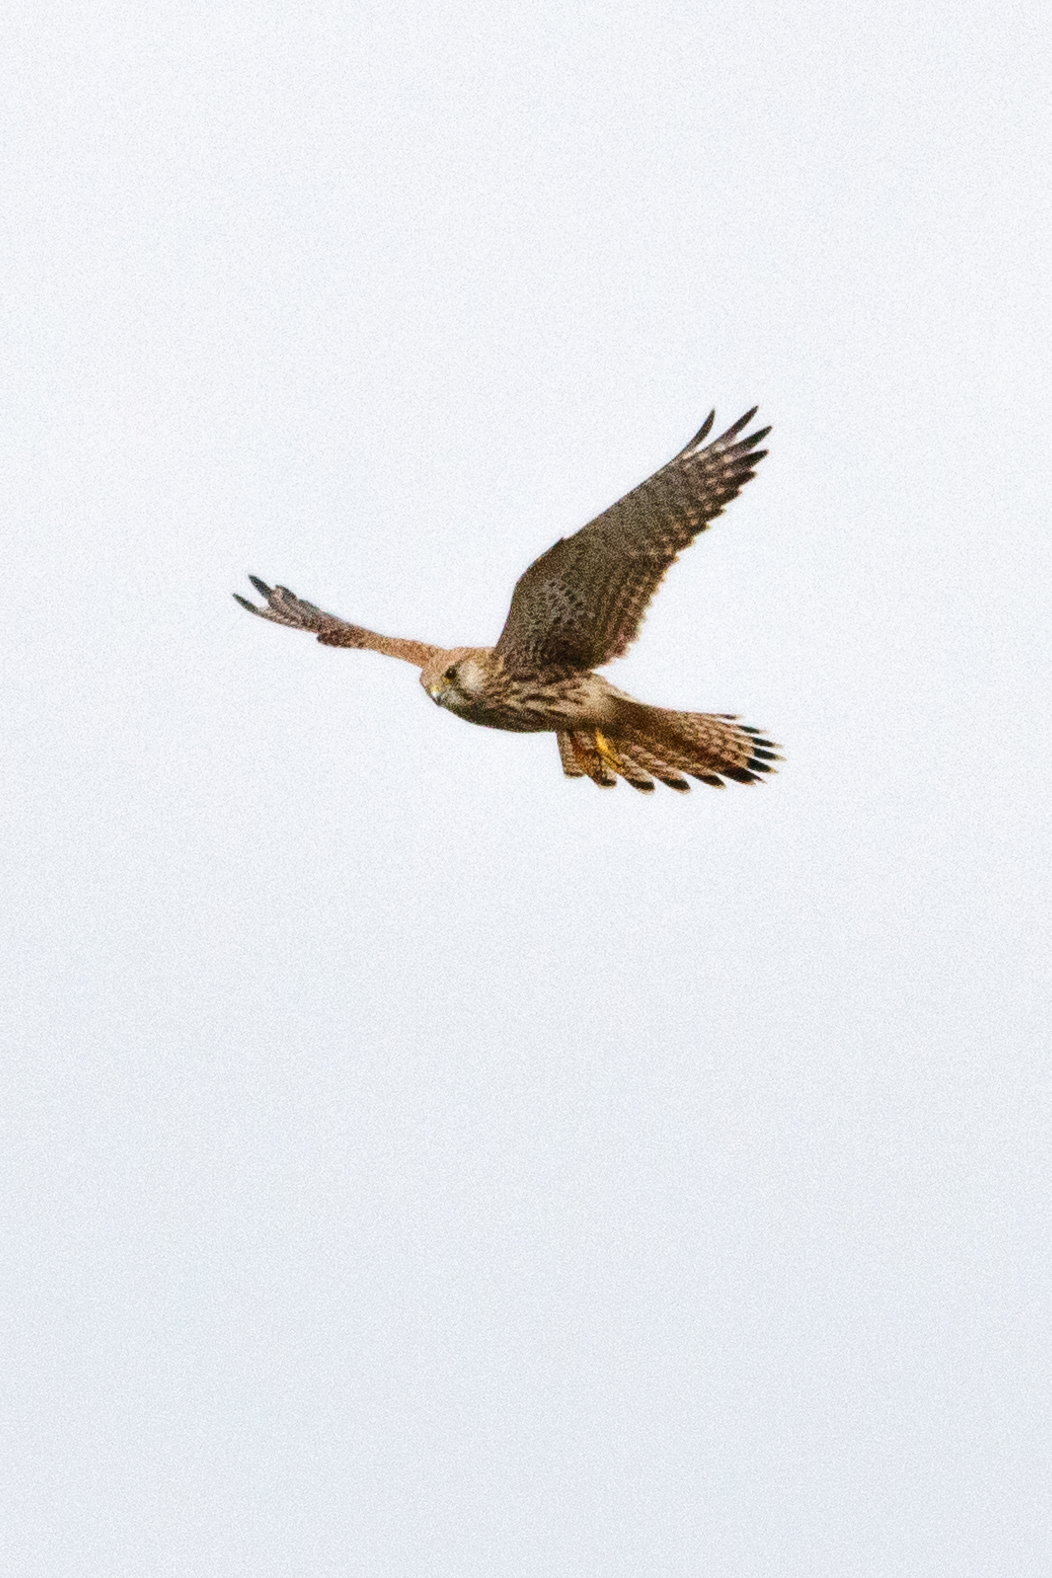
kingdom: Animalia
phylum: Chordata
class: Aves
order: Falconiformes
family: Falconidae
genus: Falco
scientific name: Falco tinnunculus
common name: Common kestrel
